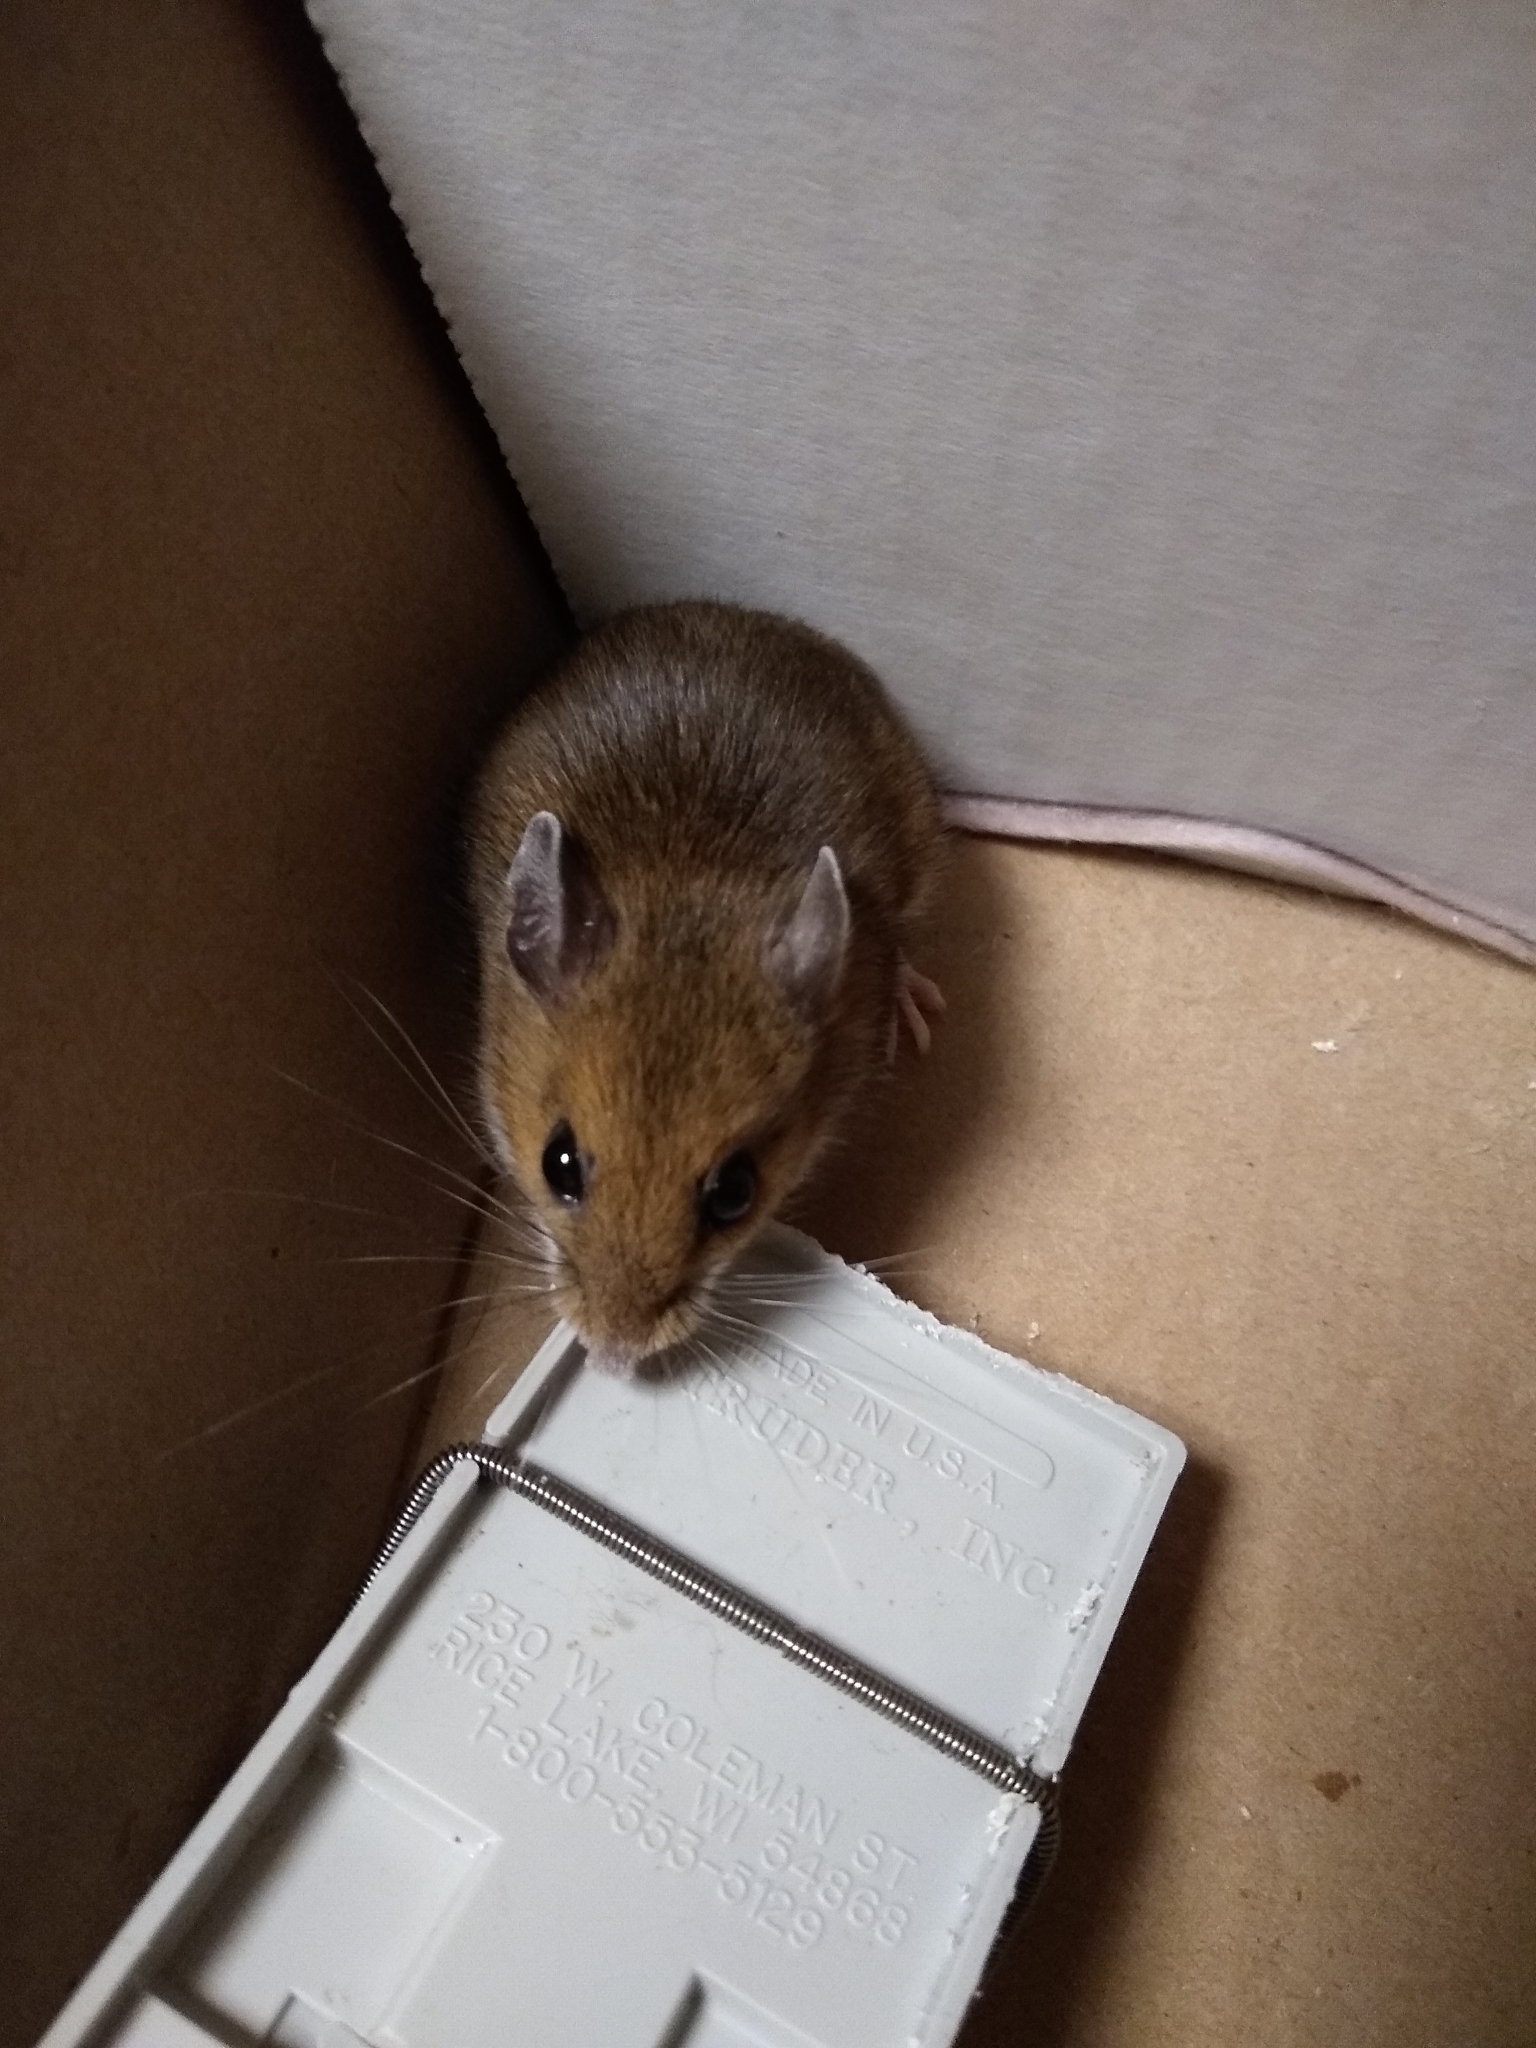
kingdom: Animalia
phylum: Chordata
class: Mammalia
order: Rodentia
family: Cricetidae
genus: Peromyscus
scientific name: Peromyscus maniculatus
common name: Deer mouse
